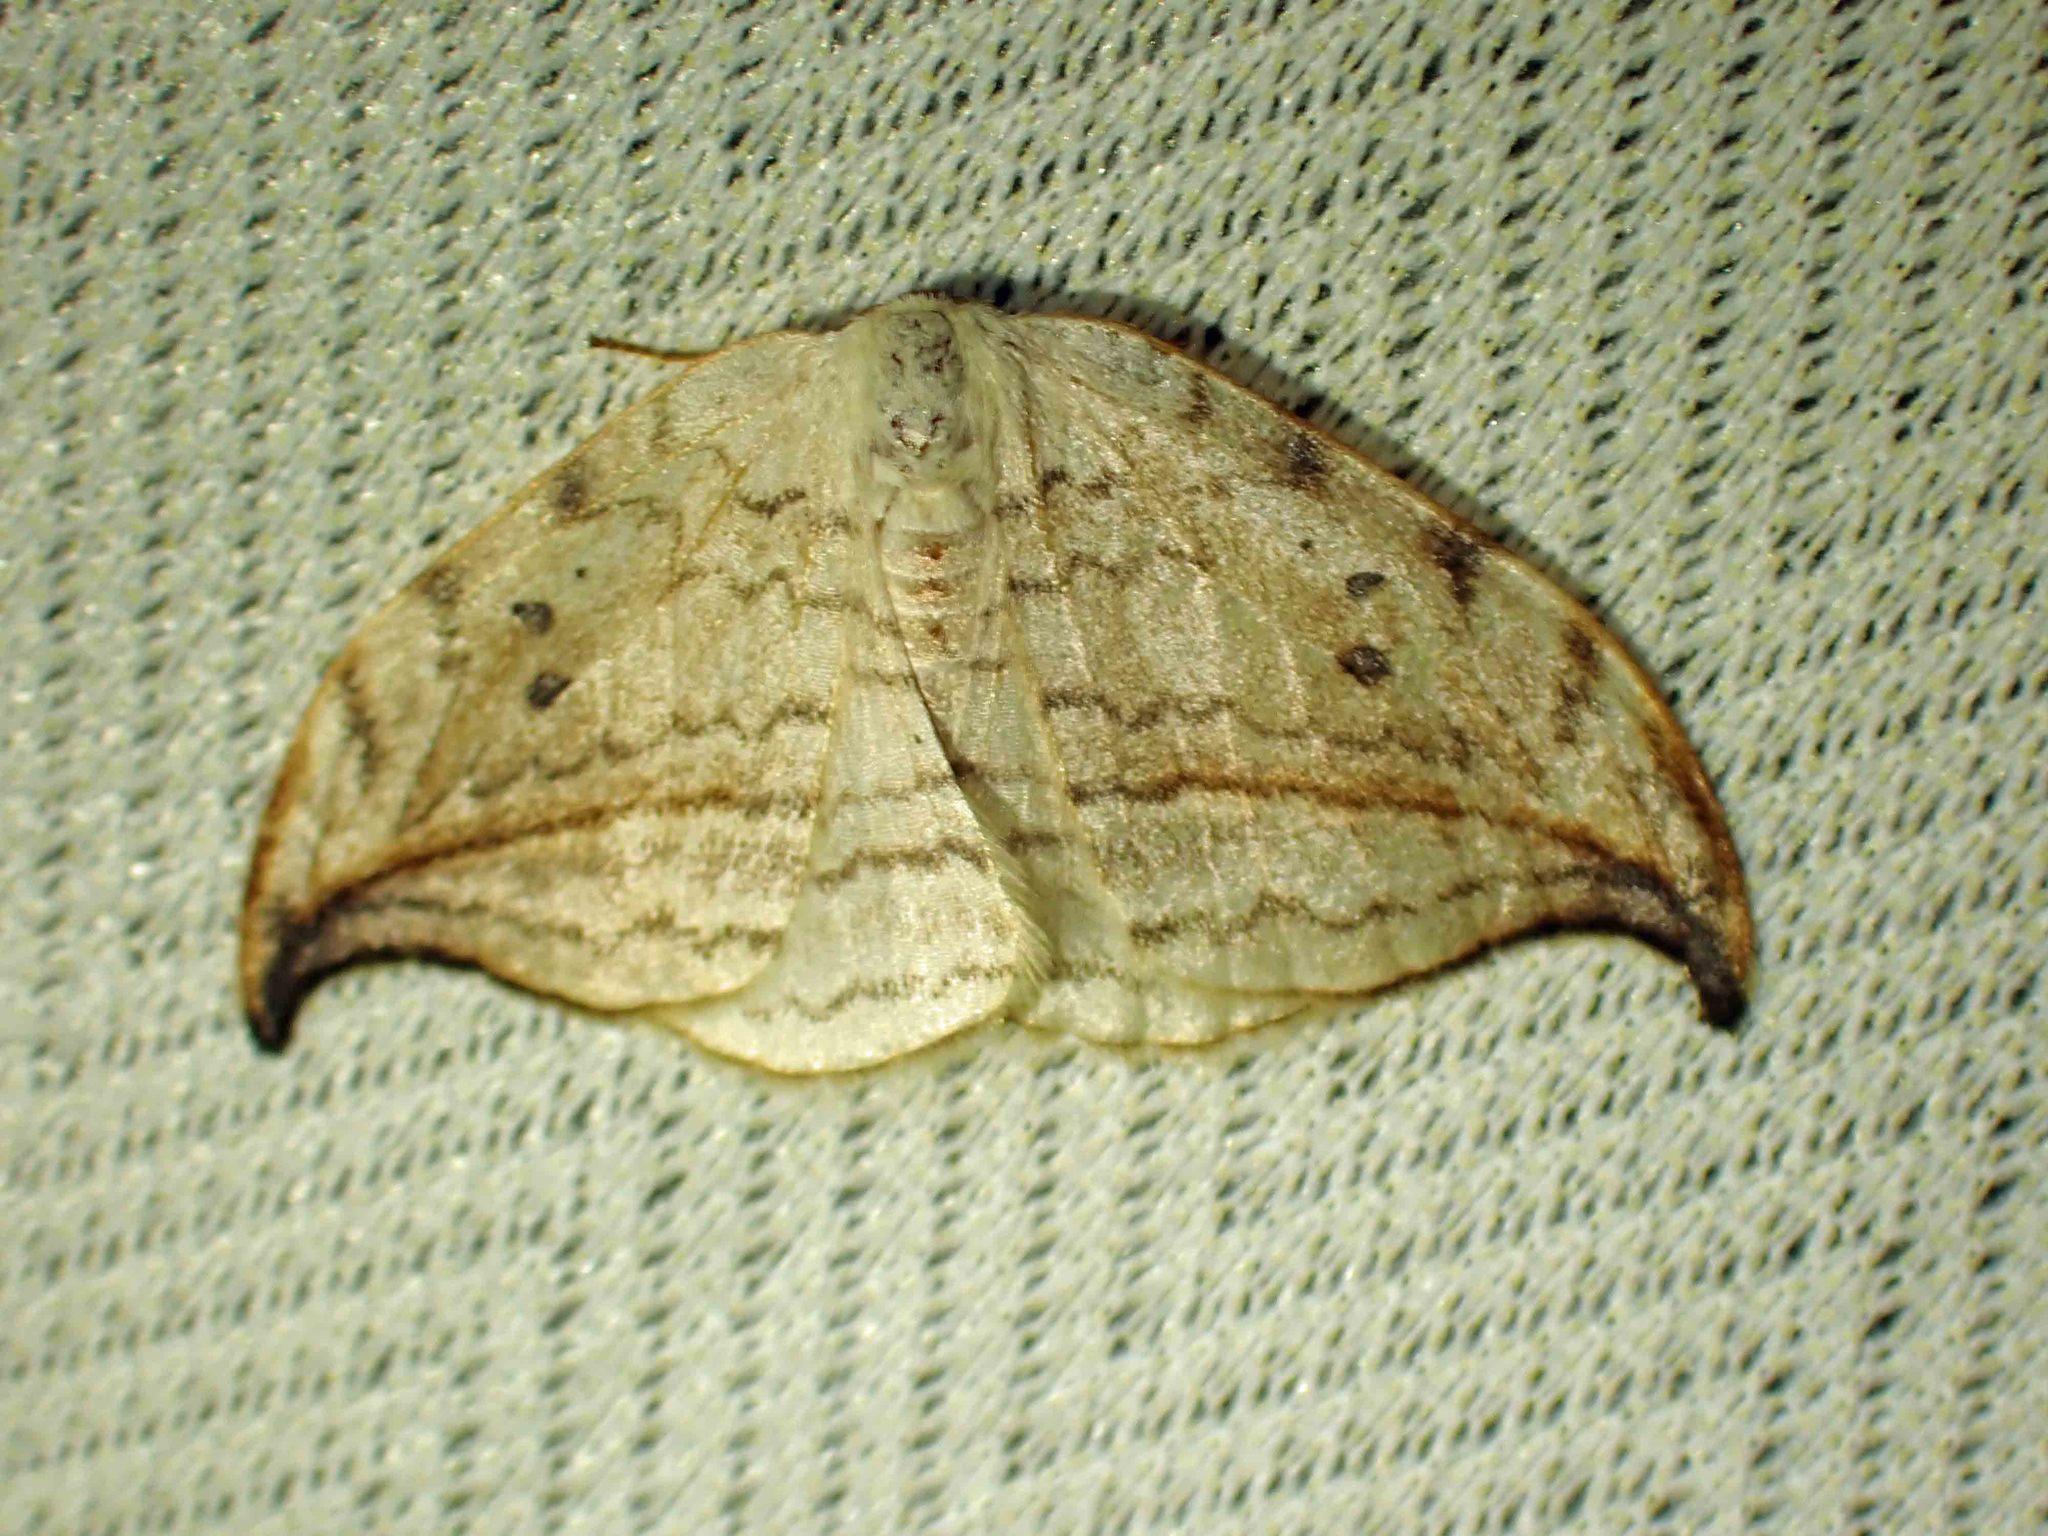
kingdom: Animalia
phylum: Arthropoda
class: Insecta
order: Lepidoptera
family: Drepanidae
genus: Drepana
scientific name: Drepana arcuata
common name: Arched hooktip moth
